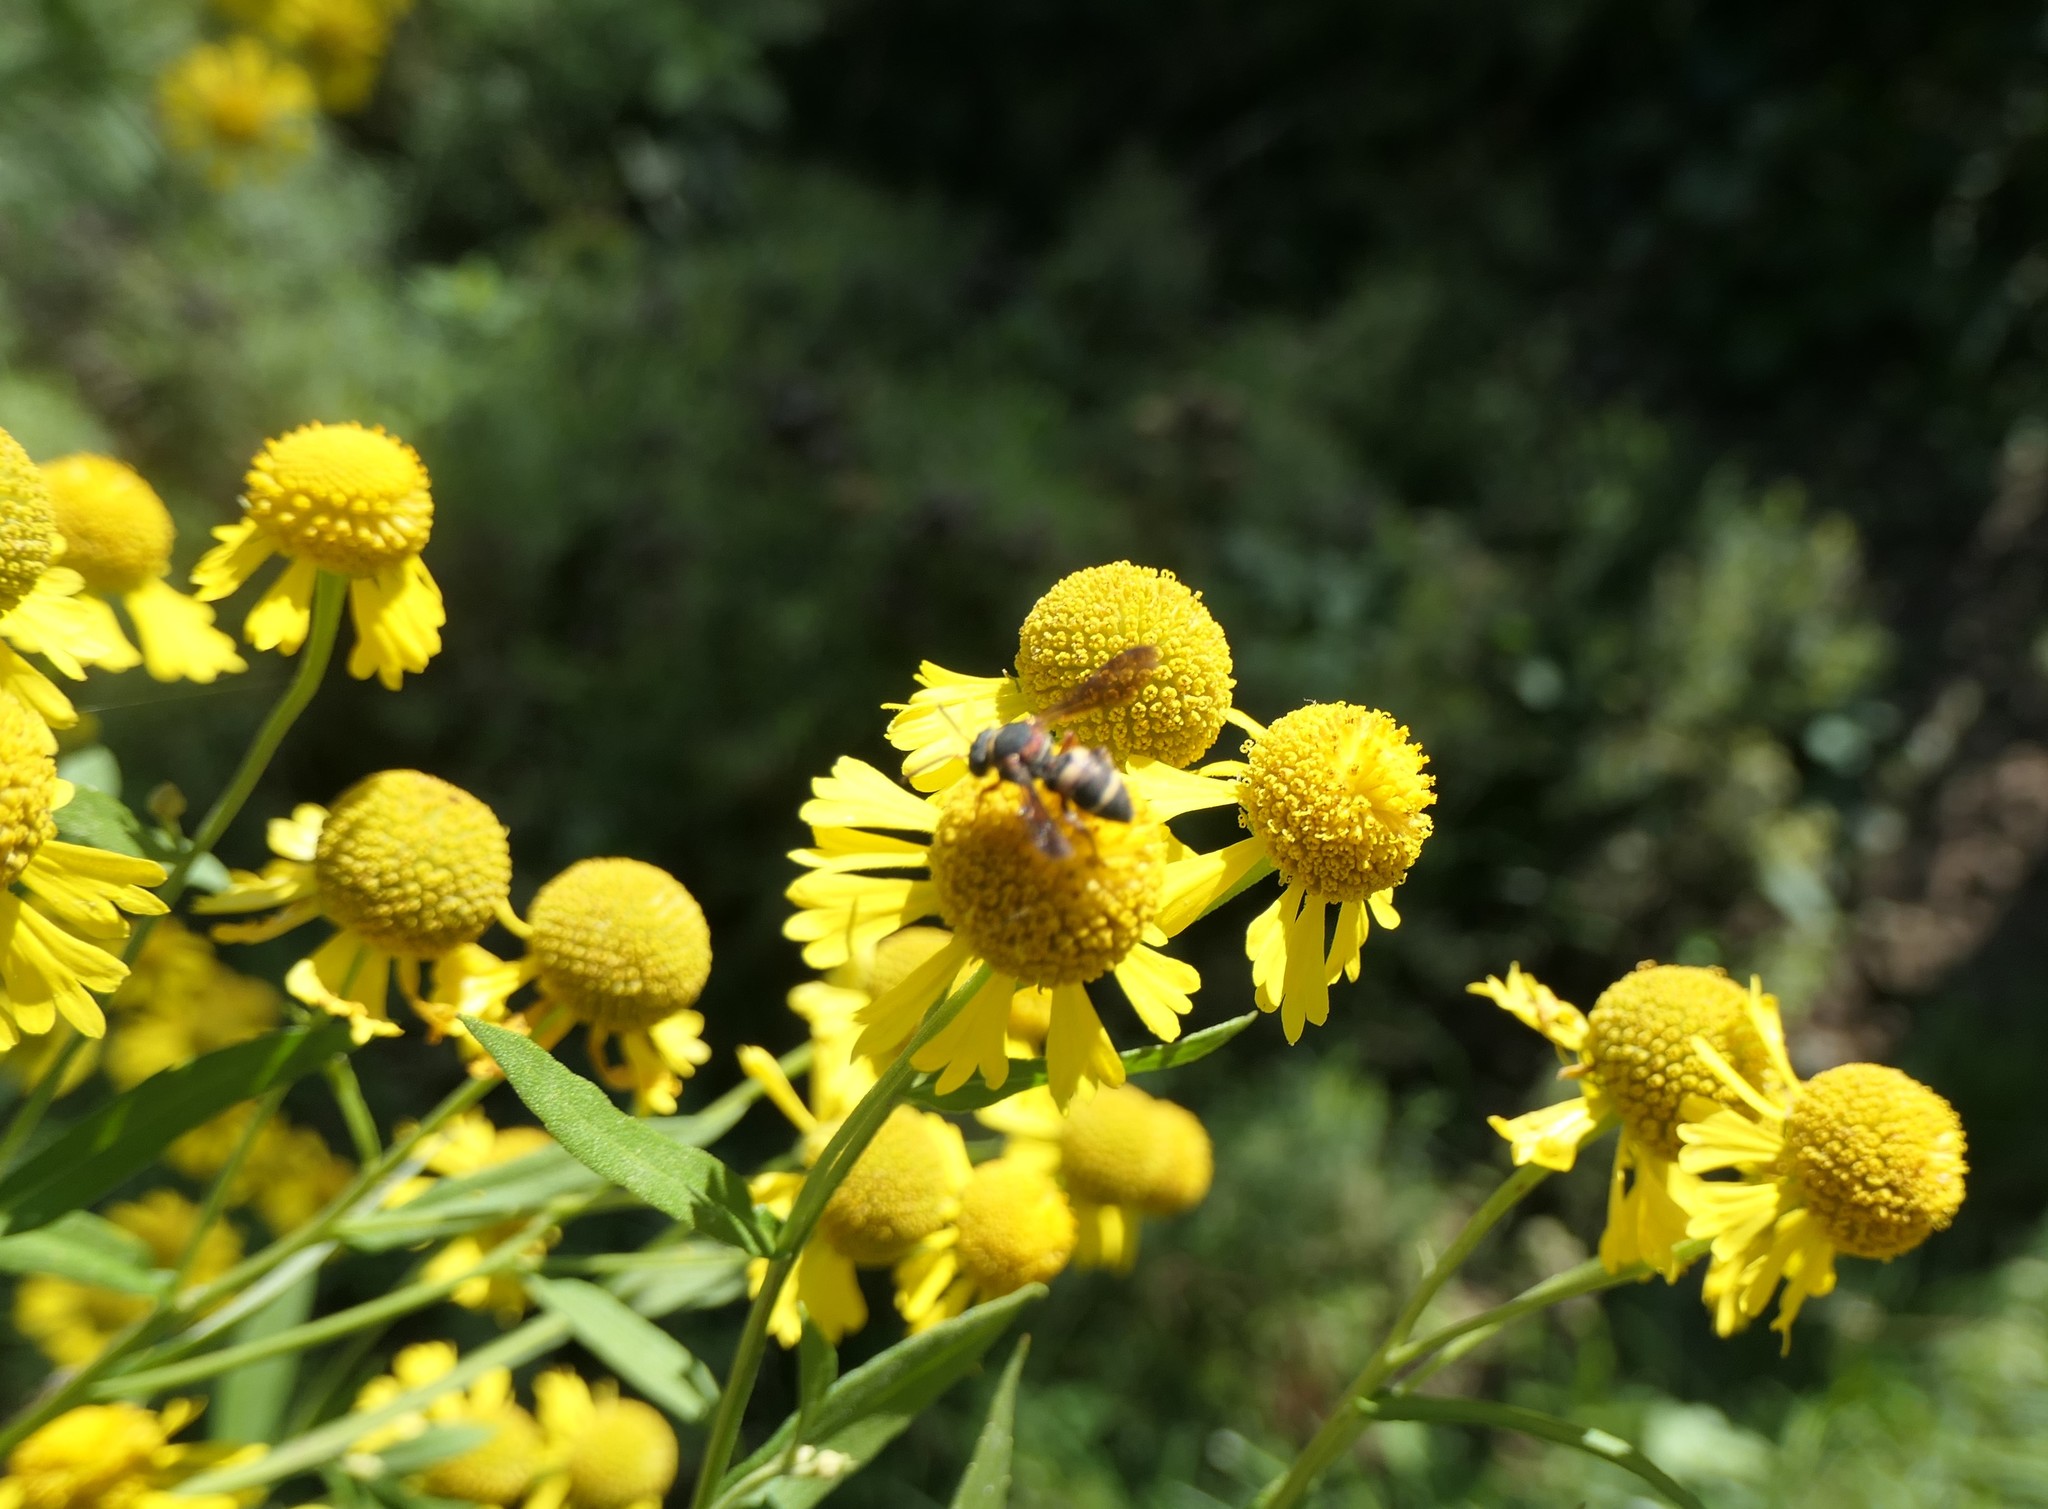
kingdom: Animalia
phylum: Arthropoda
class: Insecta
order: Hymenoptera
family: Apidae
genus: Epeolus
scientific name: Epeolus bifasciatus
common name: Two-banded cellophane-cuckoo
